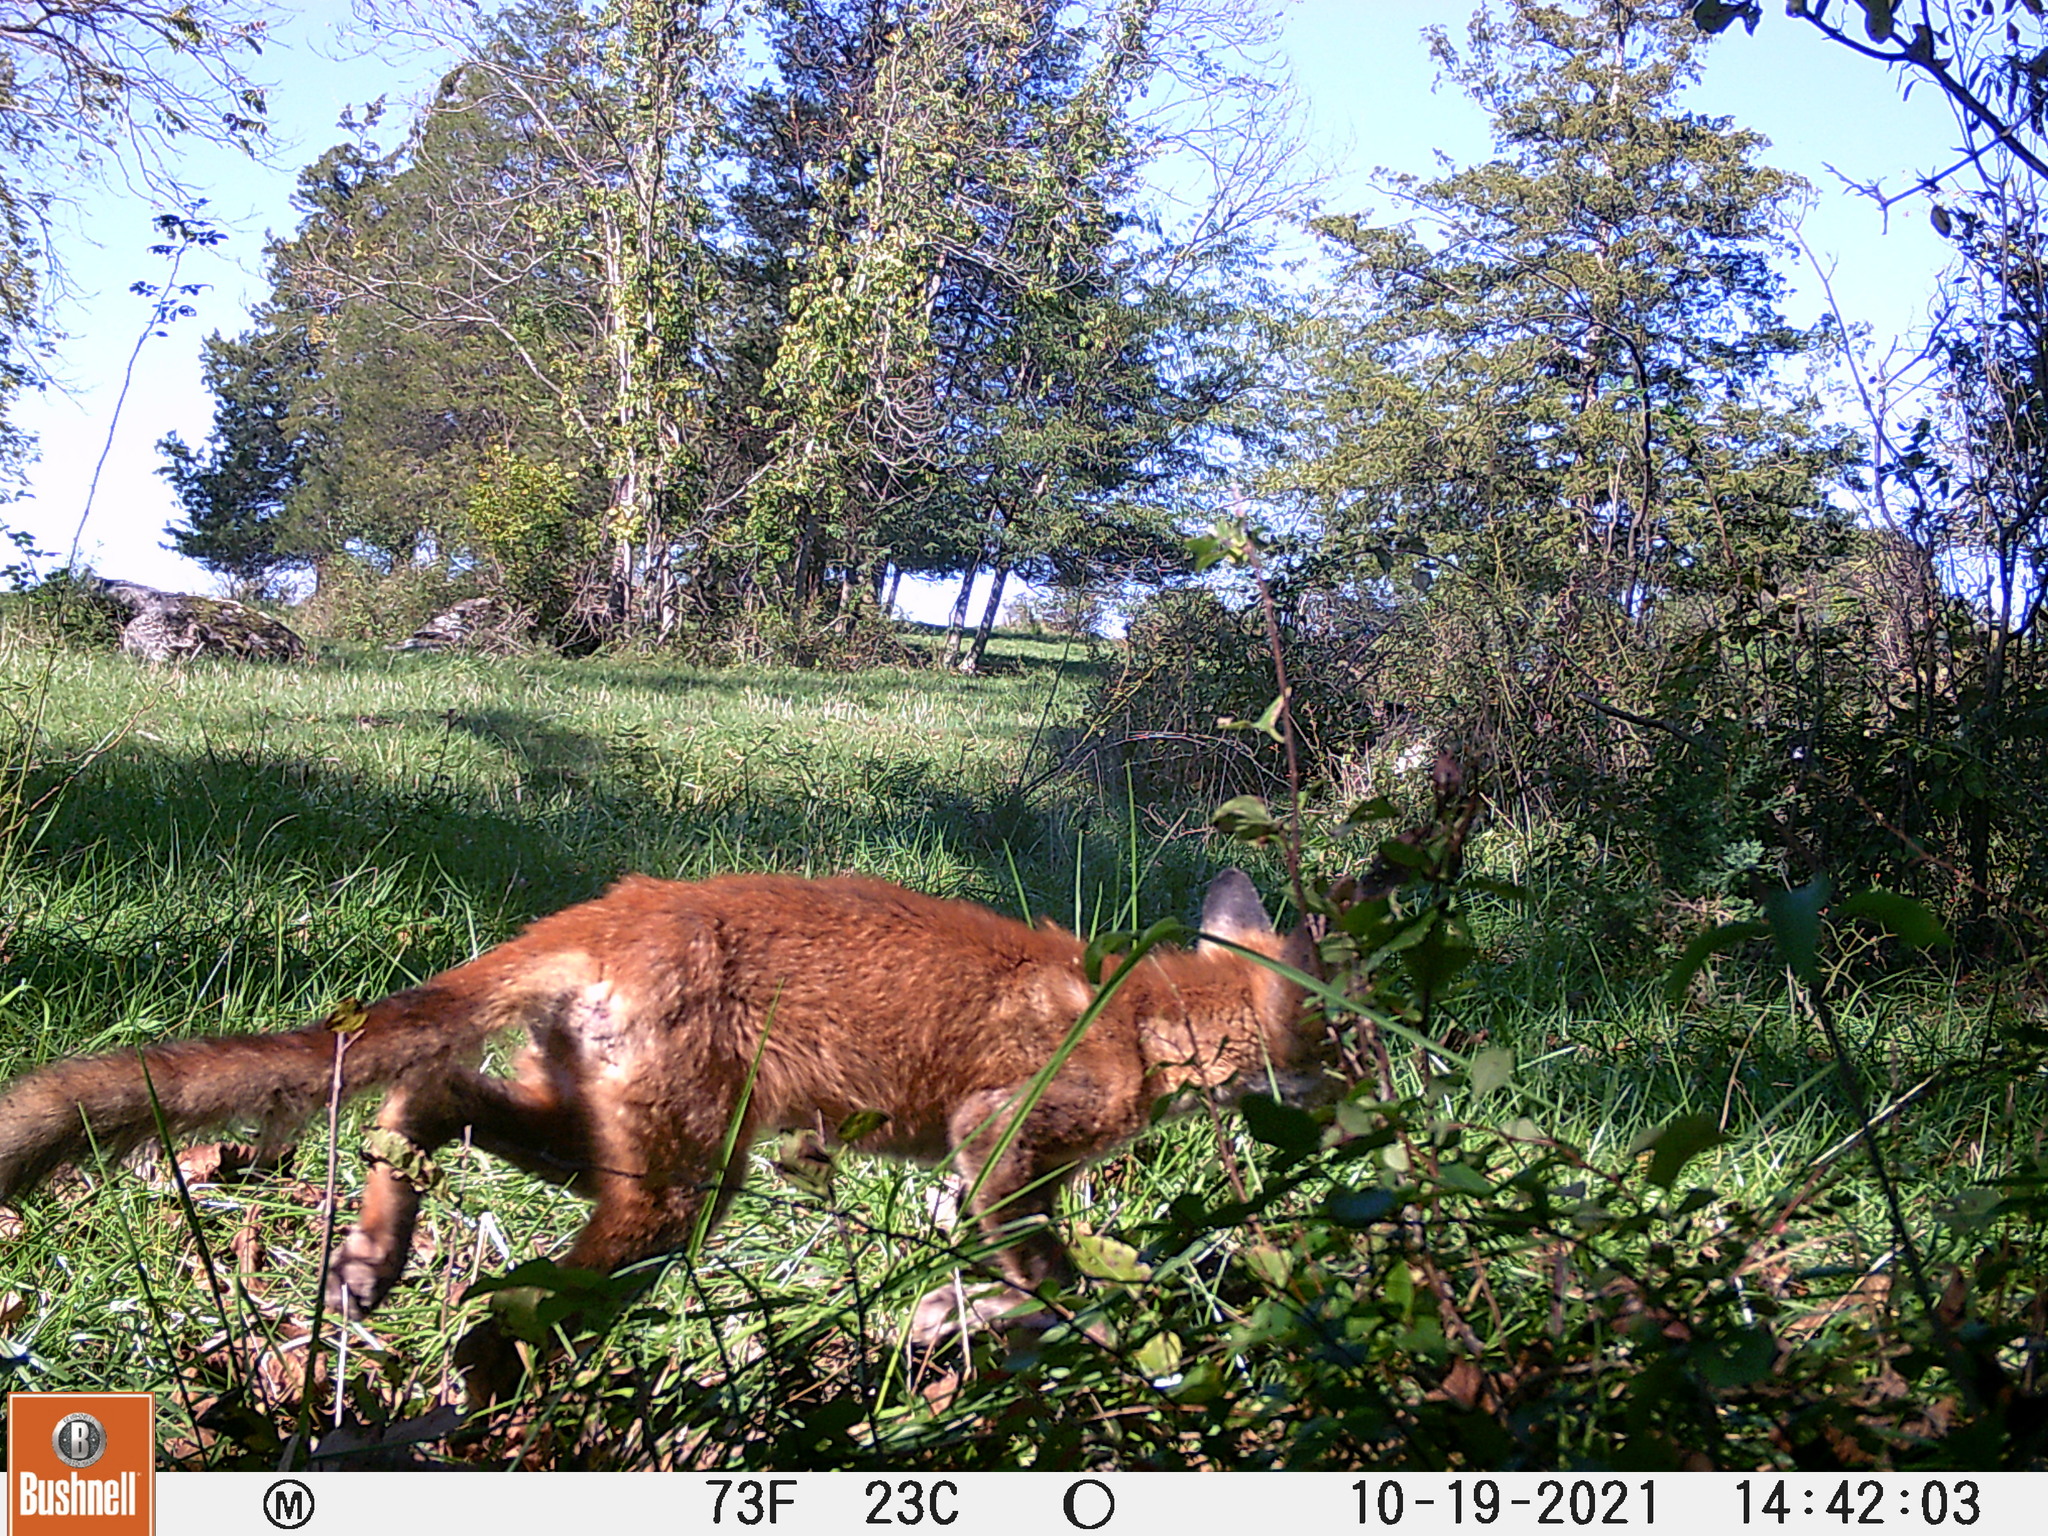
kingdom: Animalia
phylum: Chordata
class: Mammalia
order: Carnivora
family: Canidae
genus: Vulpes
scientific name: Vulpes vulpes
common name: Red fox
